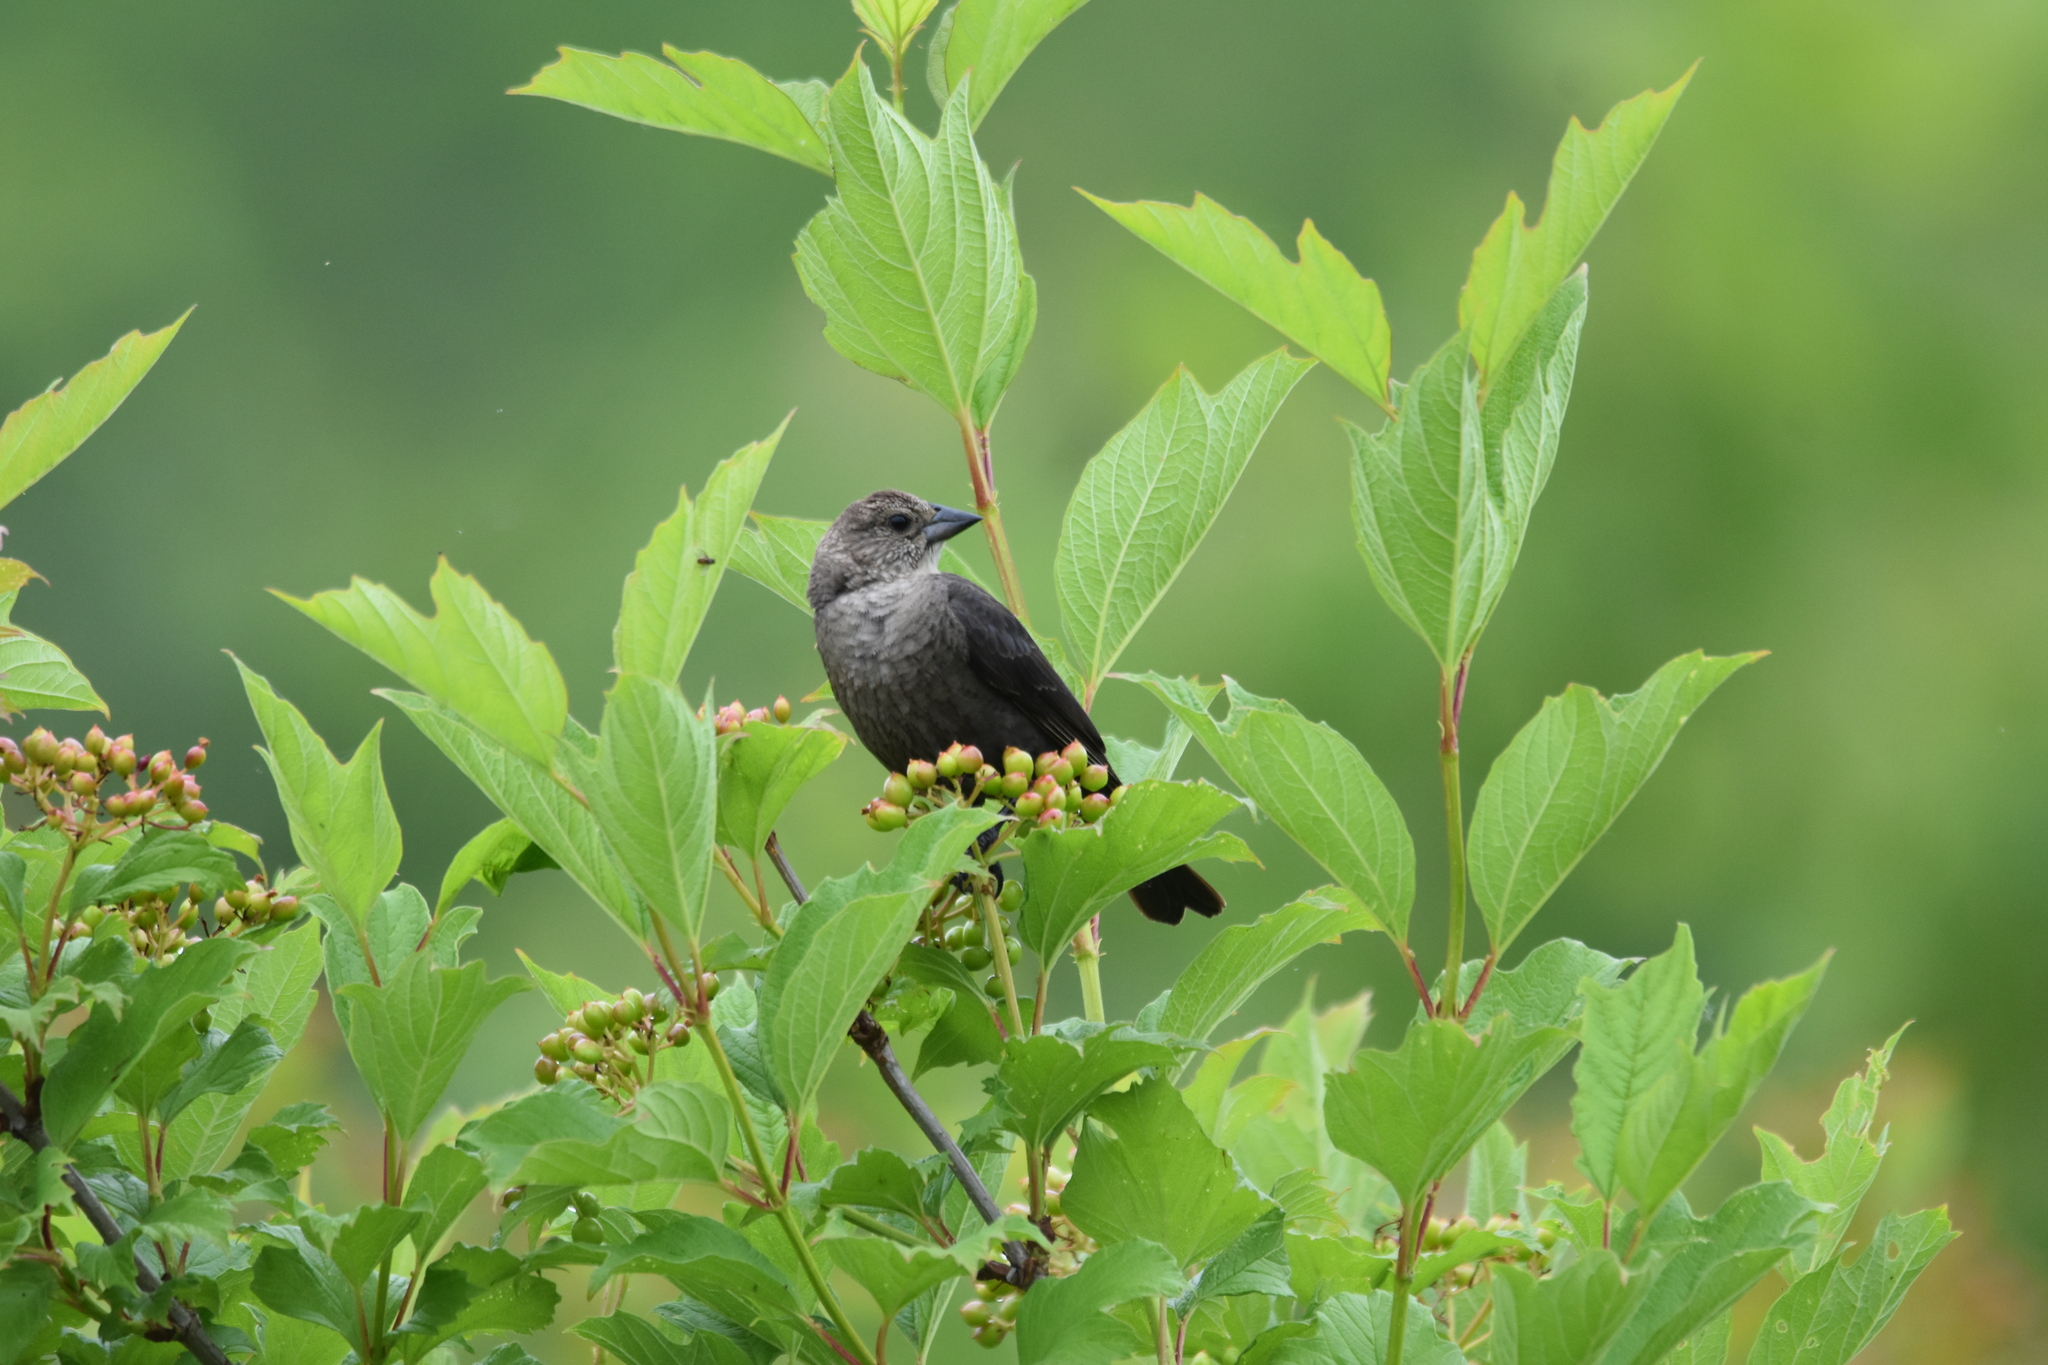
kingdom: Animalia
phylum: Chordata
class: Aves
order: Passeriformes
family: Icteridae
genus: Molothrus
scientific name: Molothrus ater
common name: Brown-headed cowbird
